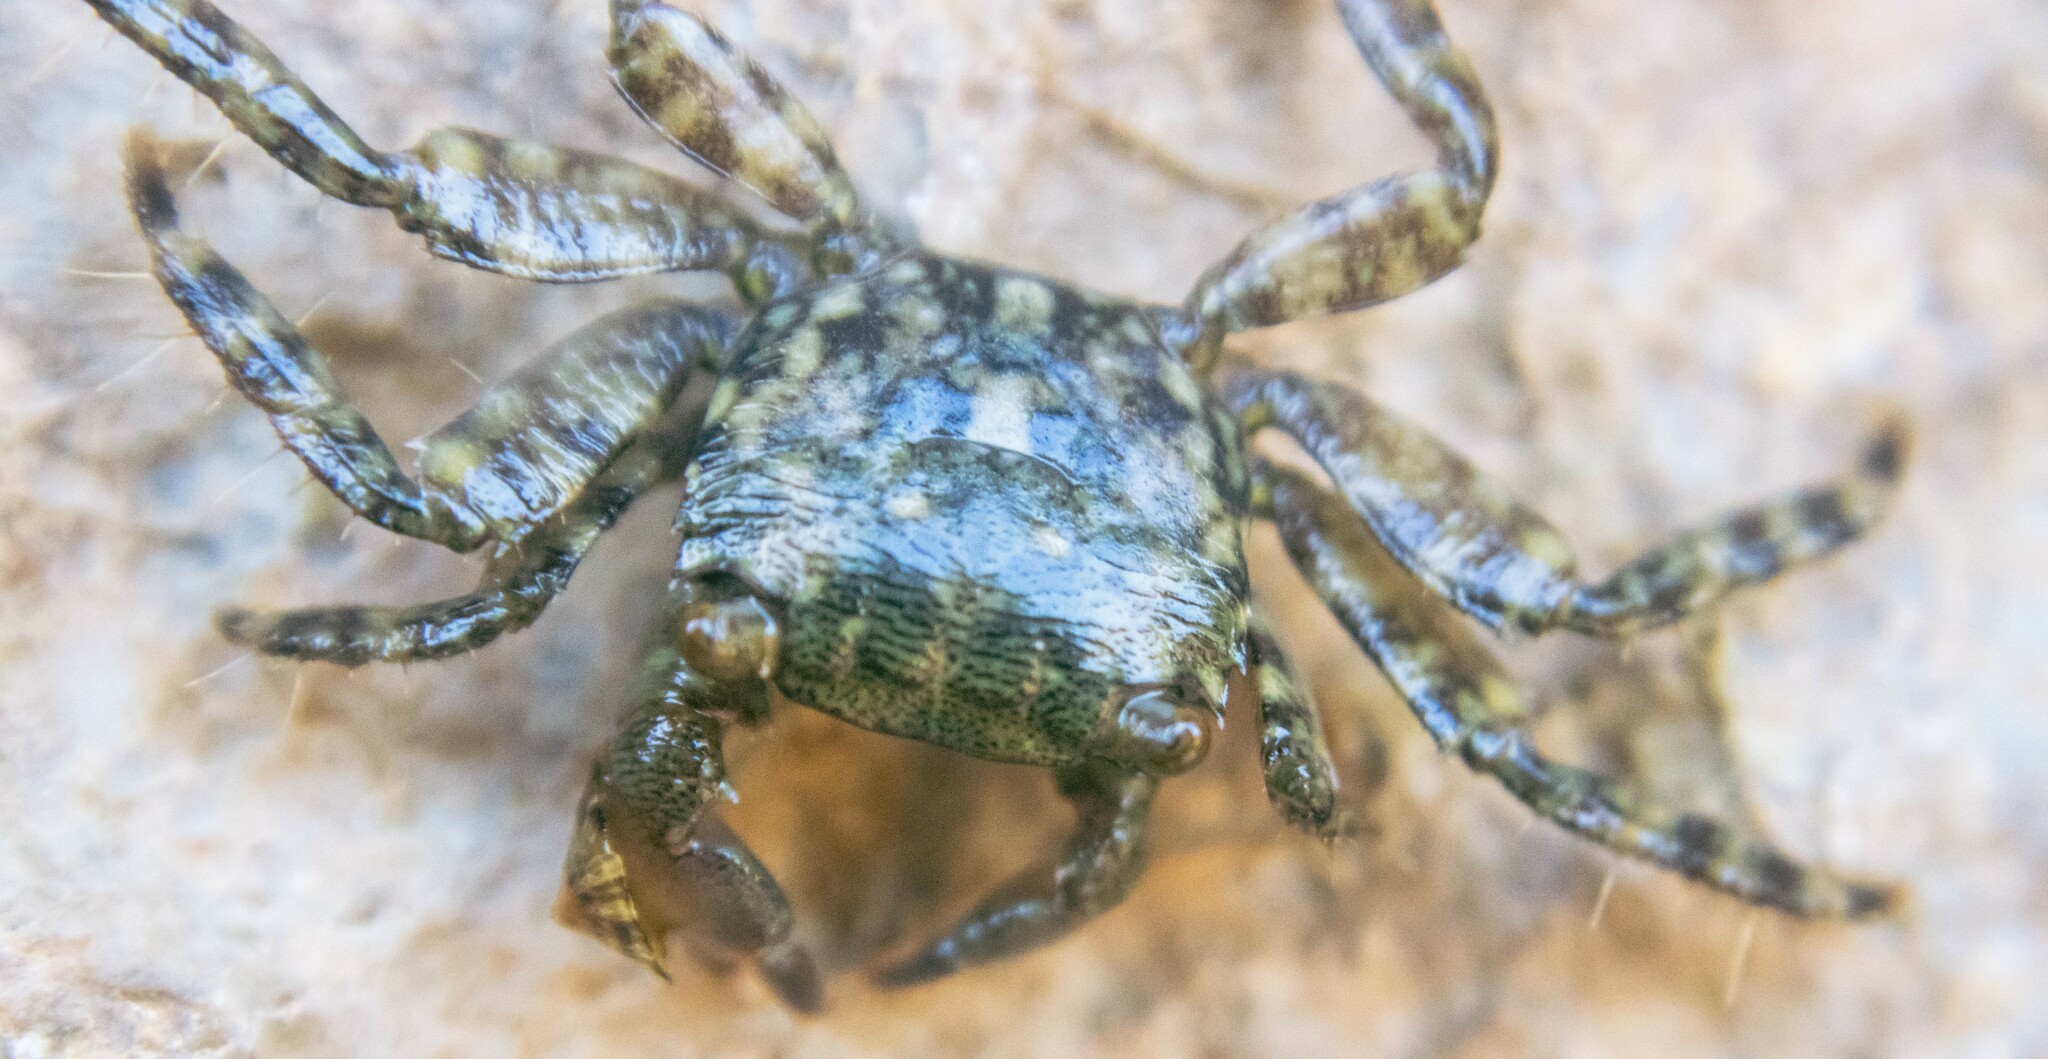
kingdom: Animalia
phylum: Arthropoda
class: Malacostraca
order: Decapoda
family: Grapsidae
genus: Pachygrapsus
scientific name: Pachygrapsus marmoratus
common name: Marbled rock crab
